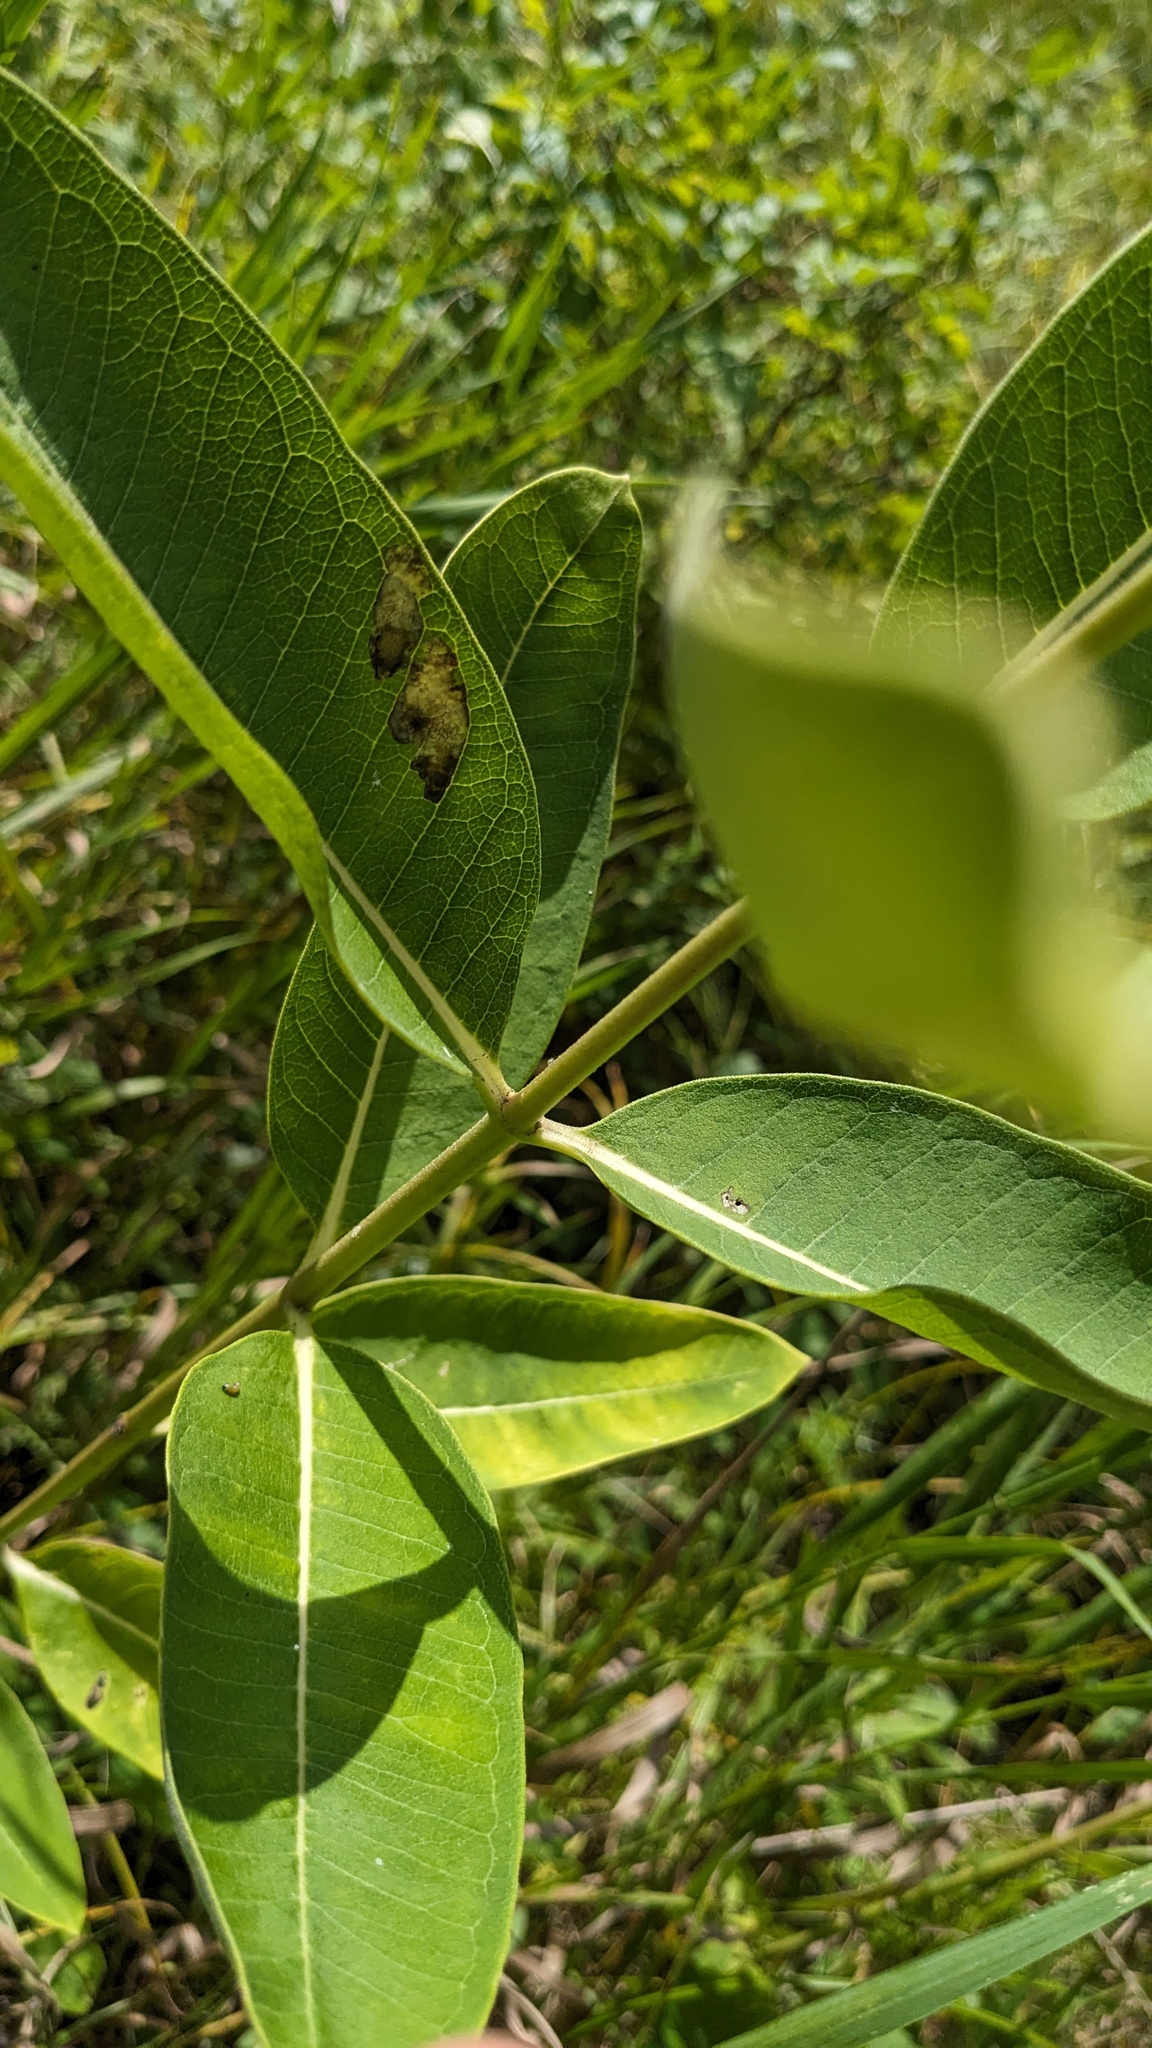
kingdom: Animalia
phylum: Arthropoda
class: Insecta
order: Diptera
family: Agromyzidae
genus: Liriomyza
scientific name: Liriomyza asclepiadis
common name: Milkweed leaf-miner fly
